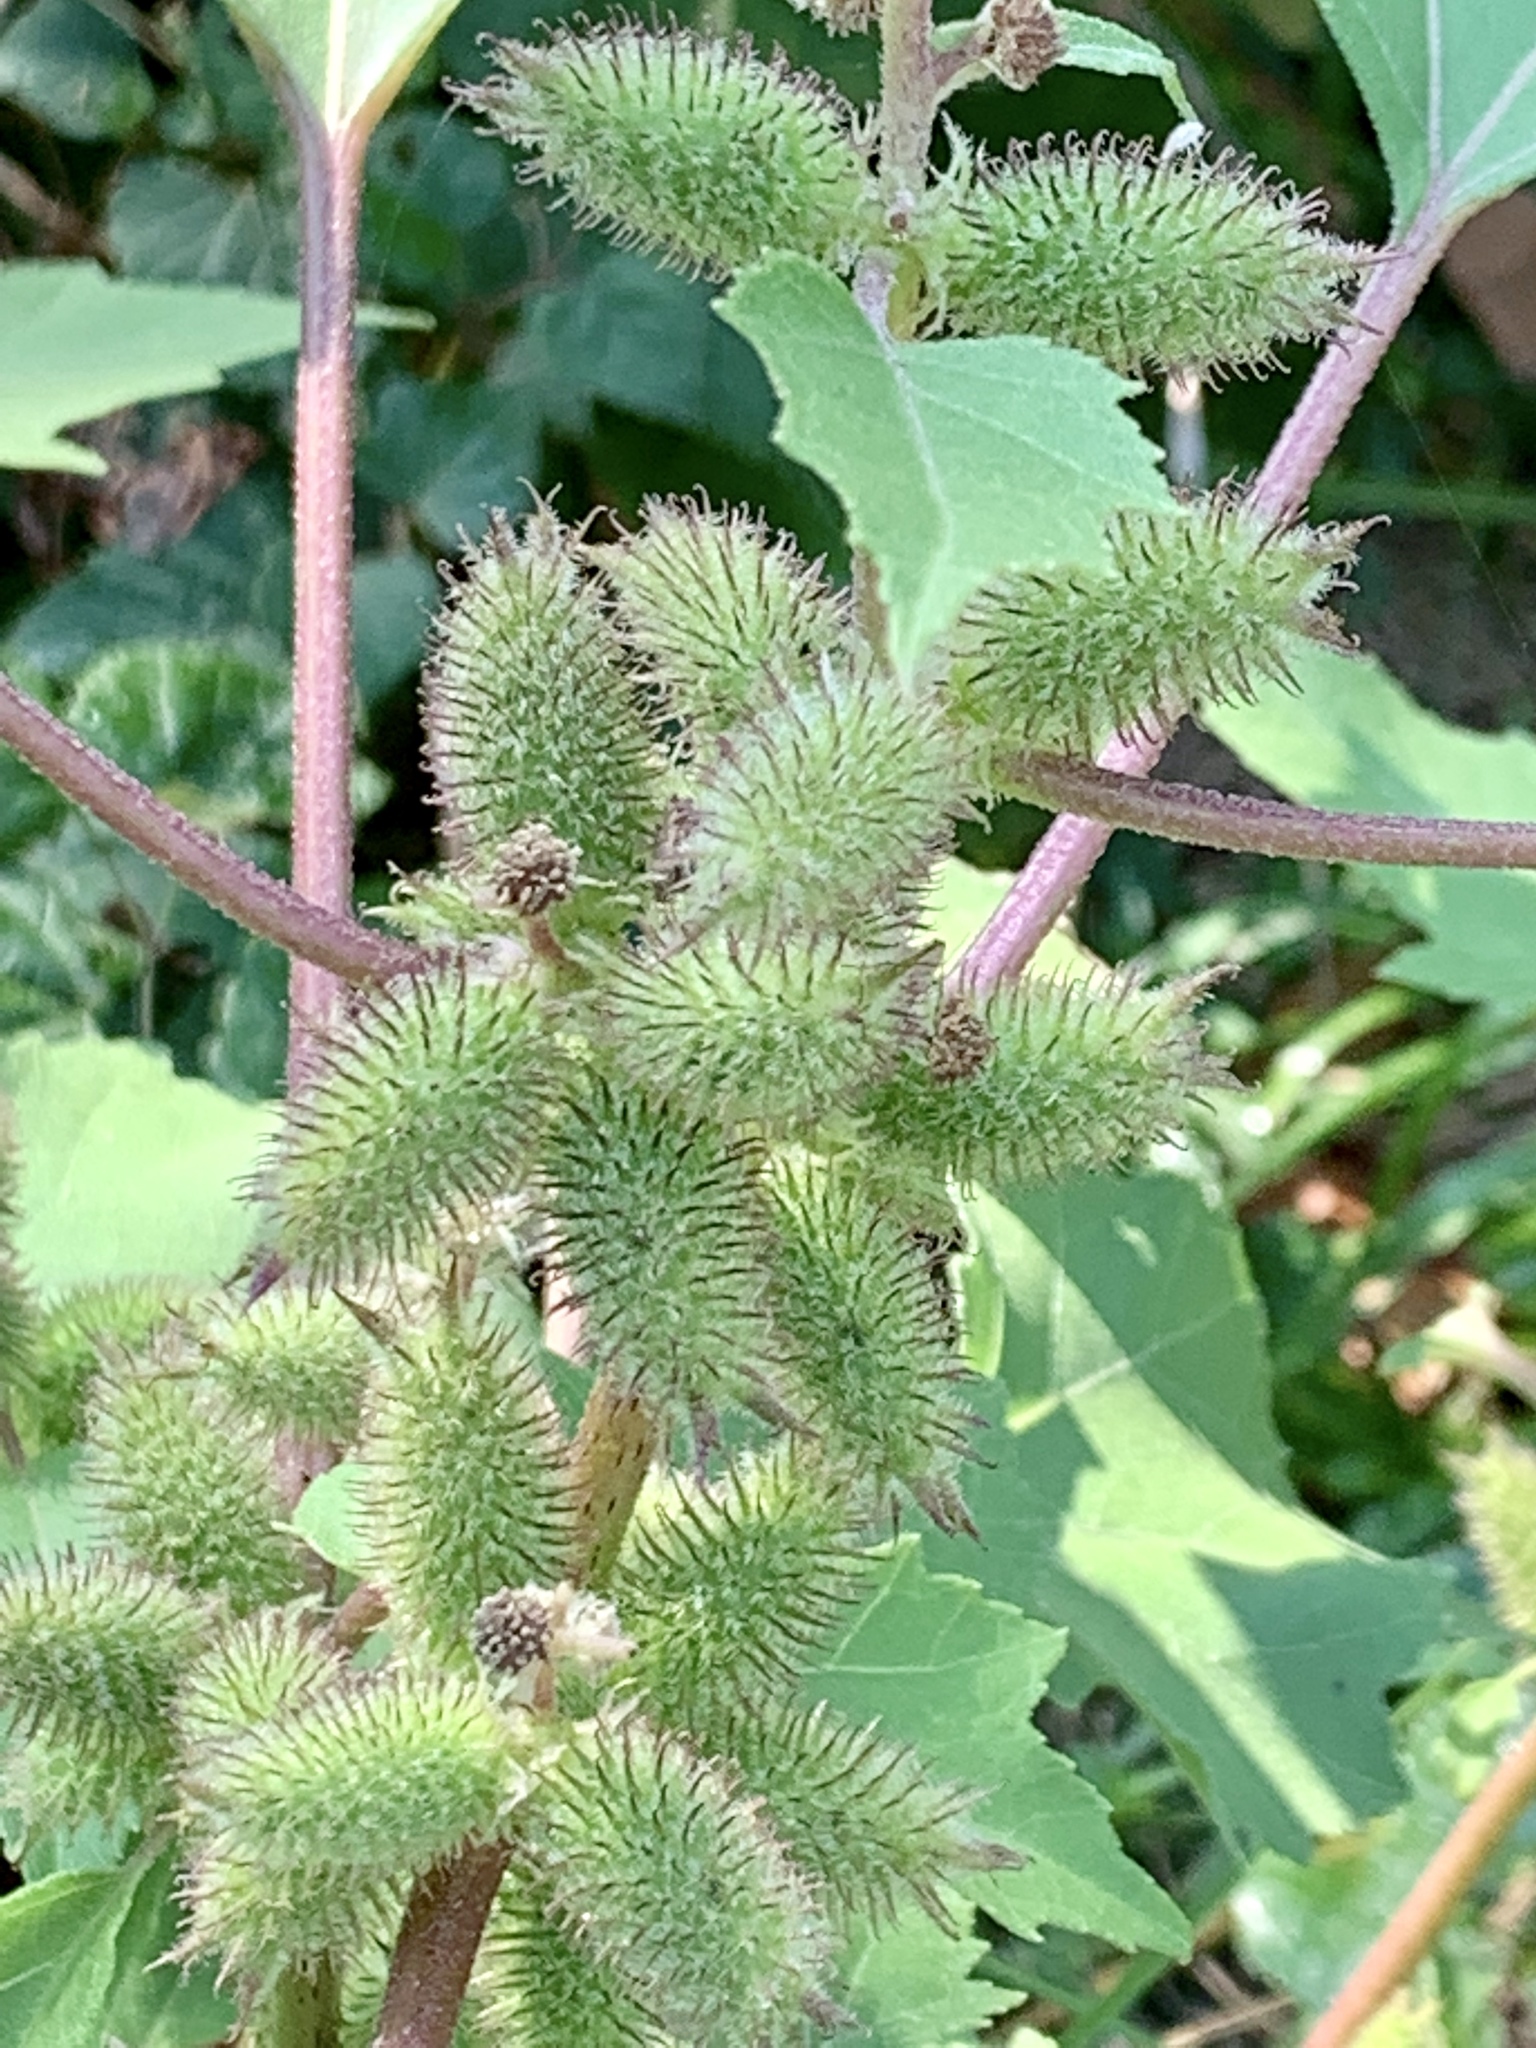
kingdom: Plantae
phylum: Tracheophyta
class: Magnoliopsida
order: Asterales
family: Asteraceae
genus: Xanthium
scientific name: Xanthium strumarium
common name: Rough cocklebur
